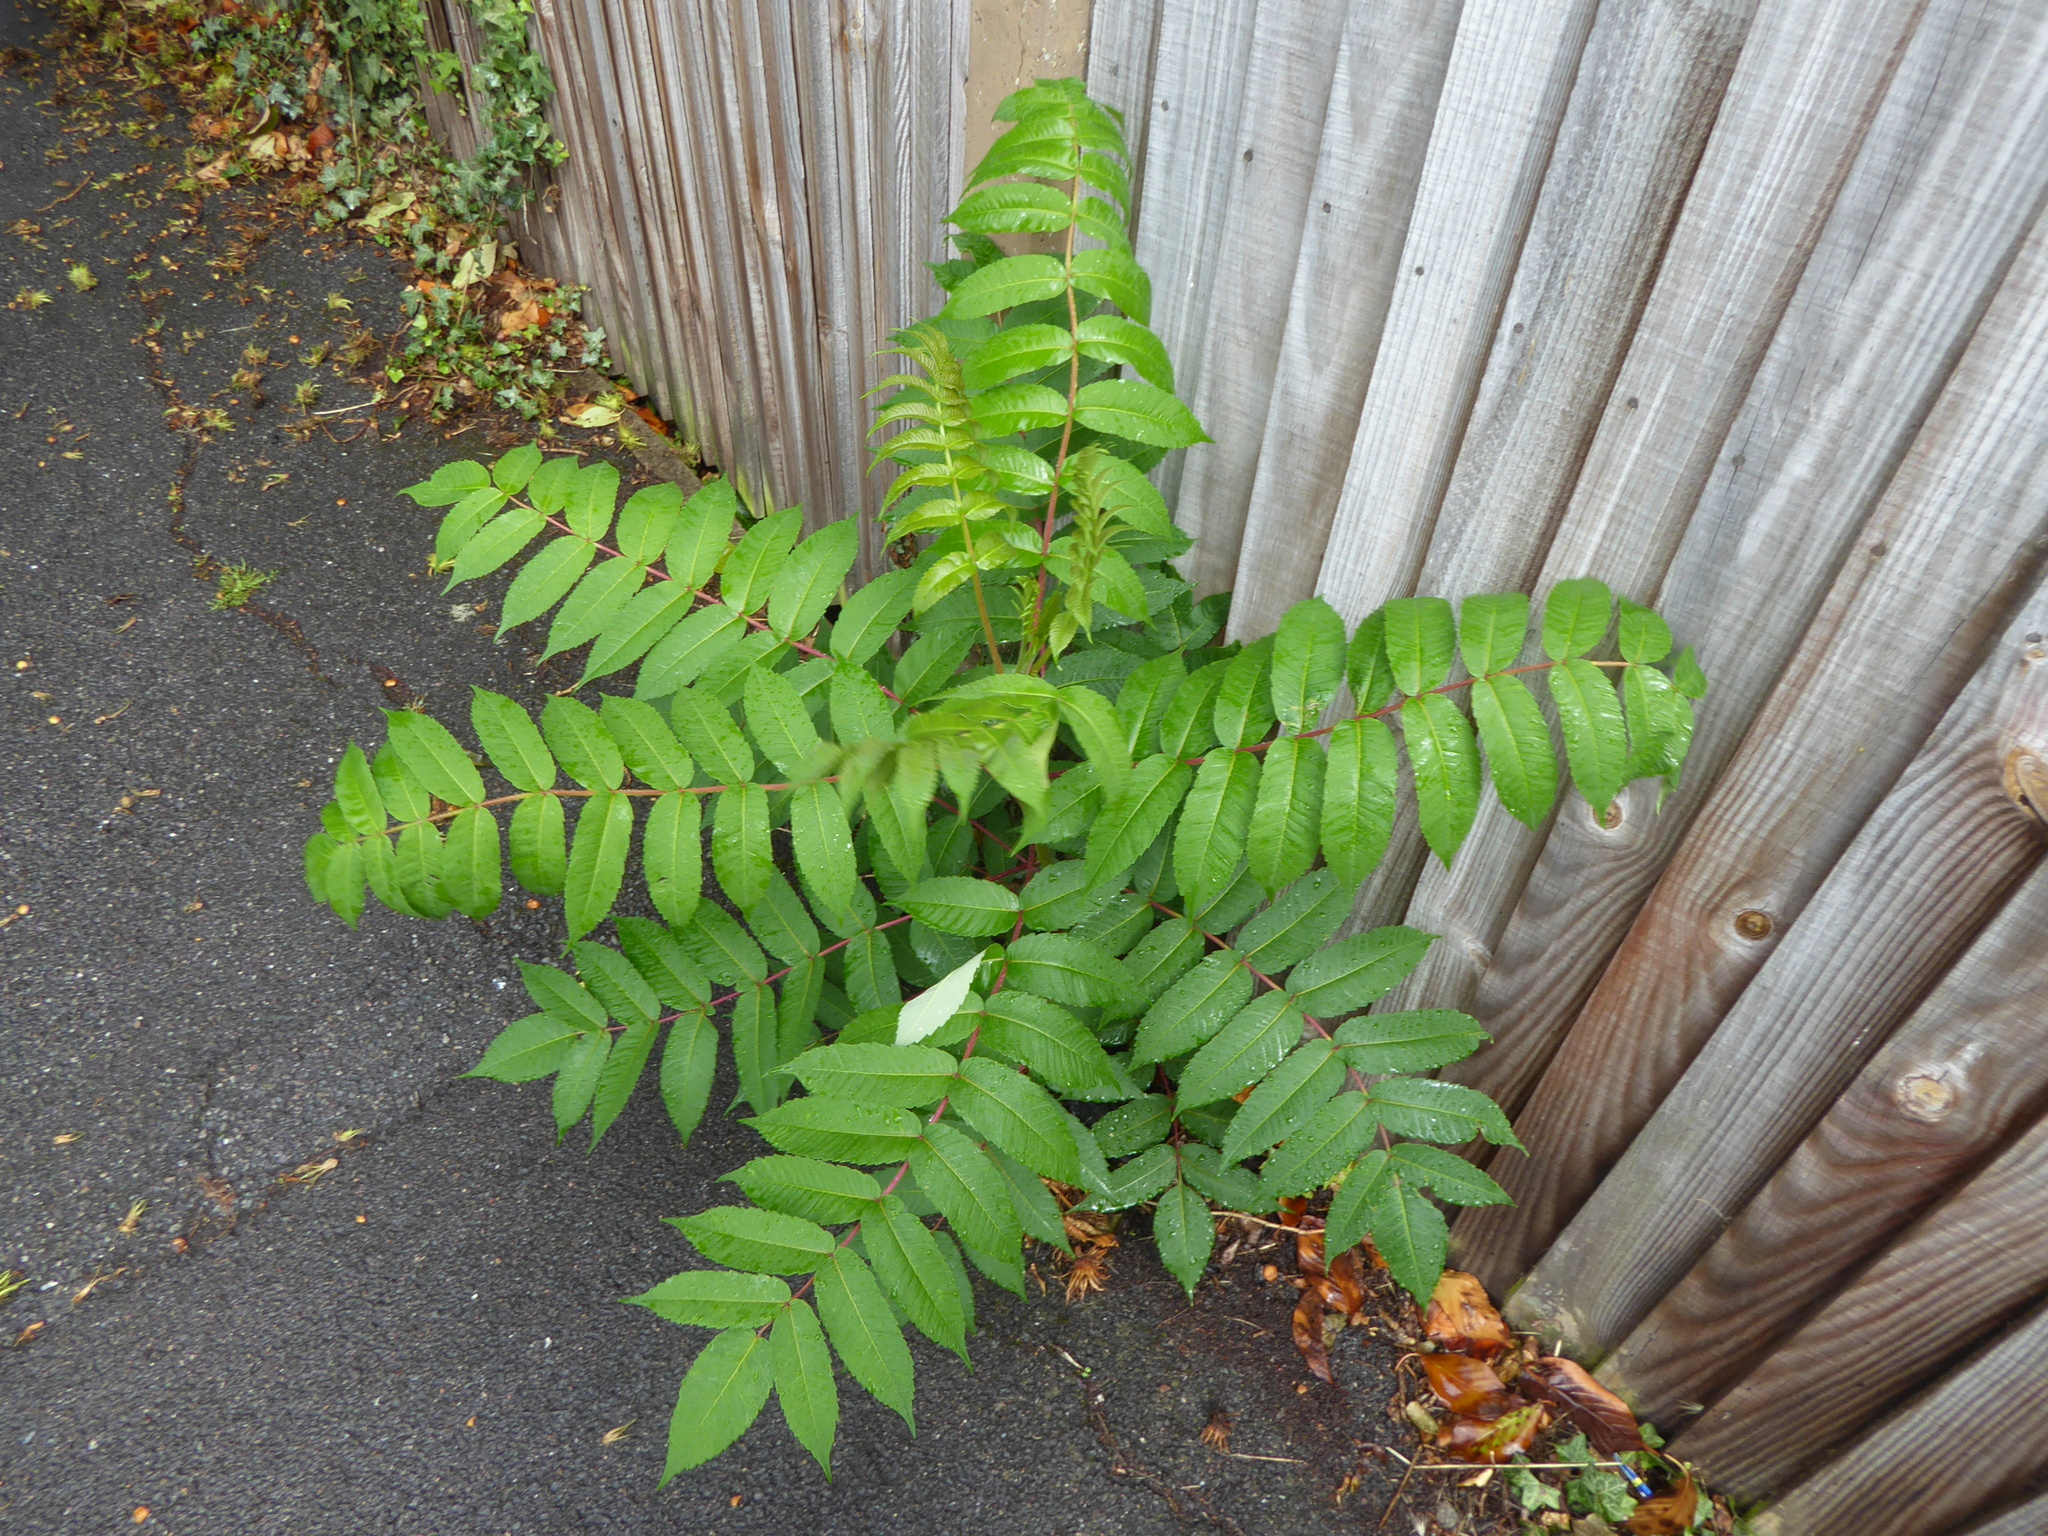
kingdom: Plantae
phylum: Tracheophyta
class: Magnoliopsida
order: Sapindales
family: Anacardiaceae
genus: Rhus
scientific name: Rhus typhina
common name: Staghorn sumac
